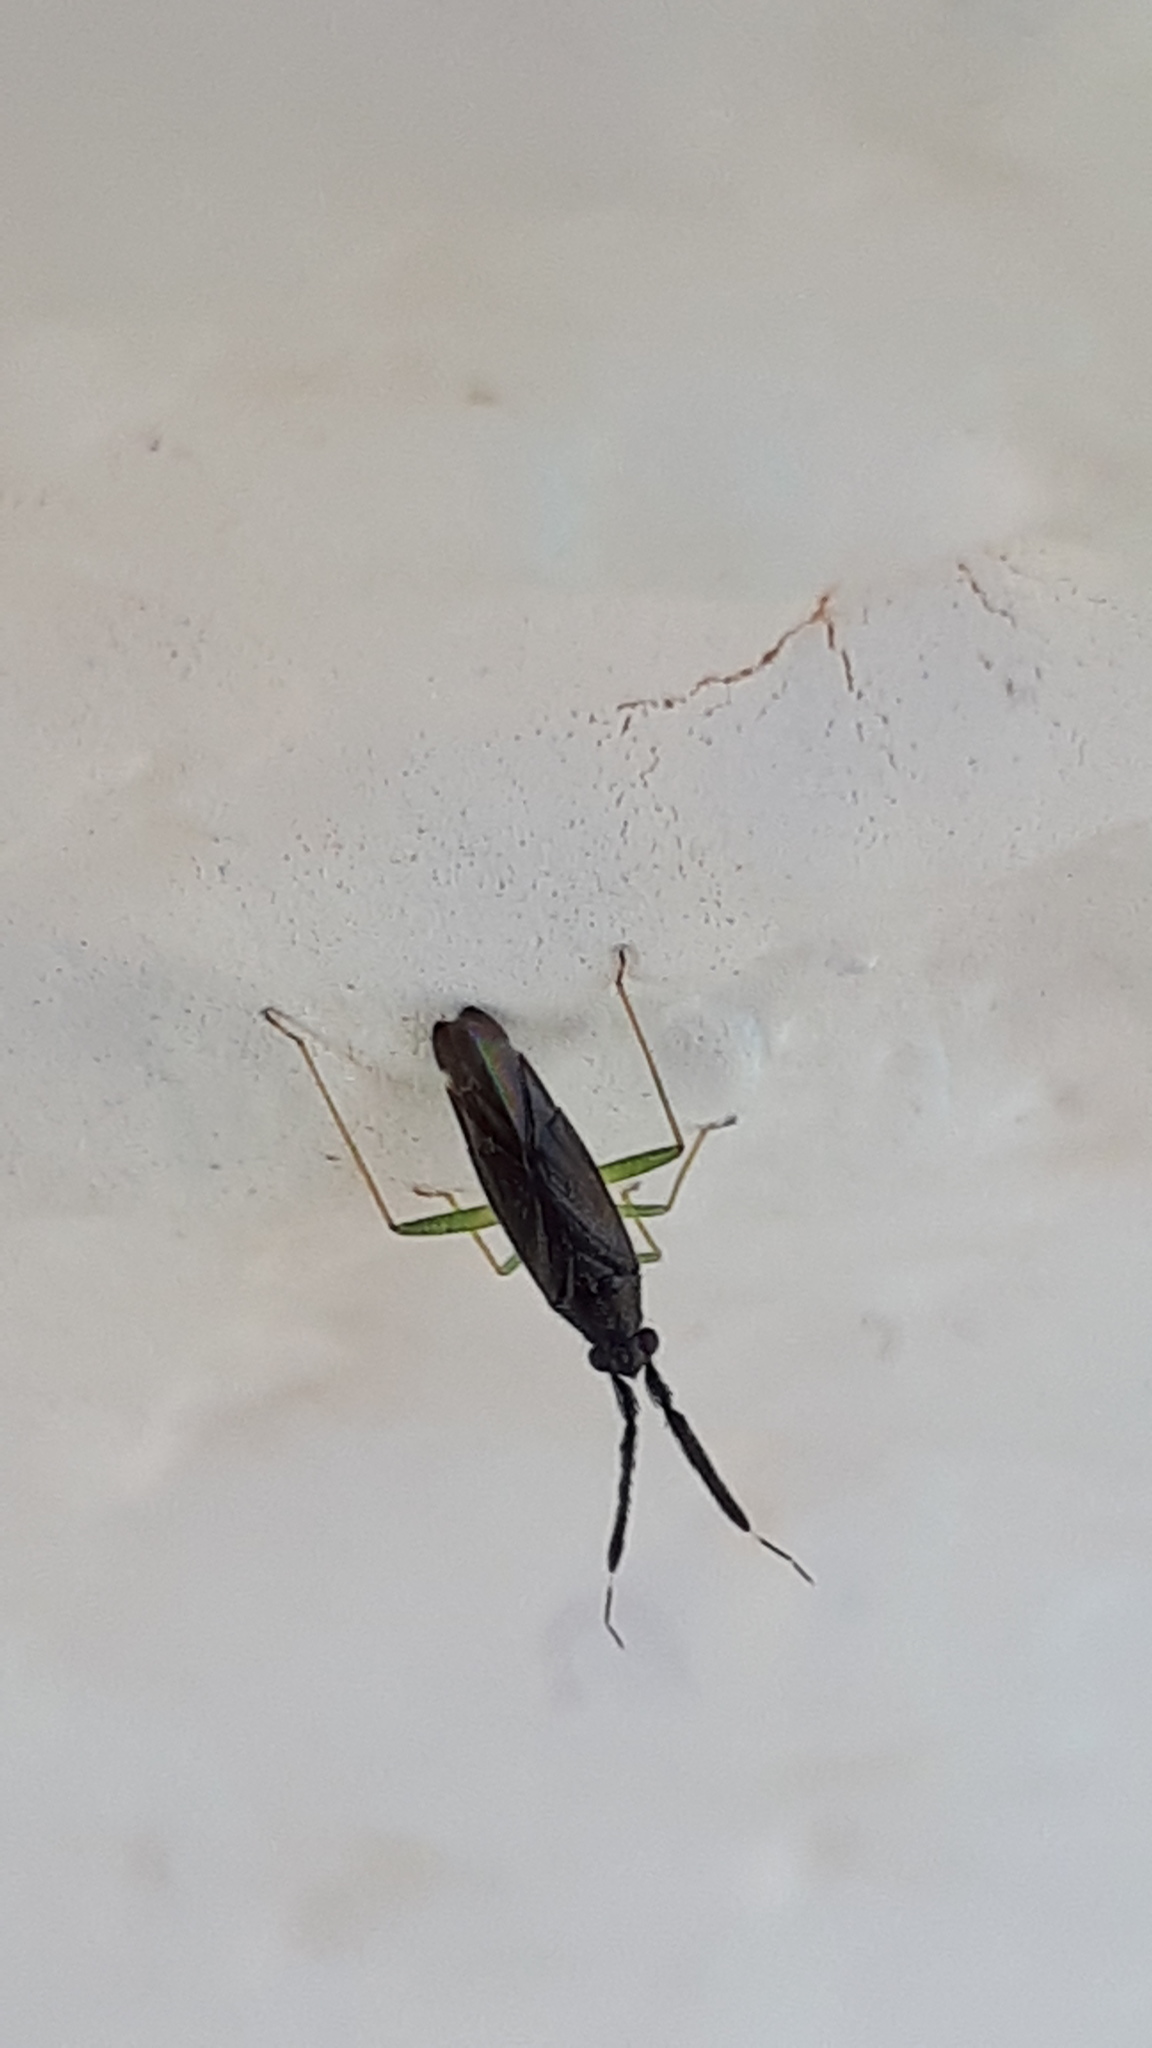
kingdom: Animalia
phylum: Arthropoda
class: Insecta
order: Hemiptera
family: Miridae
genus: Heterotoma
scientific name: Heterotoma planicornis
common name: Plant bug
